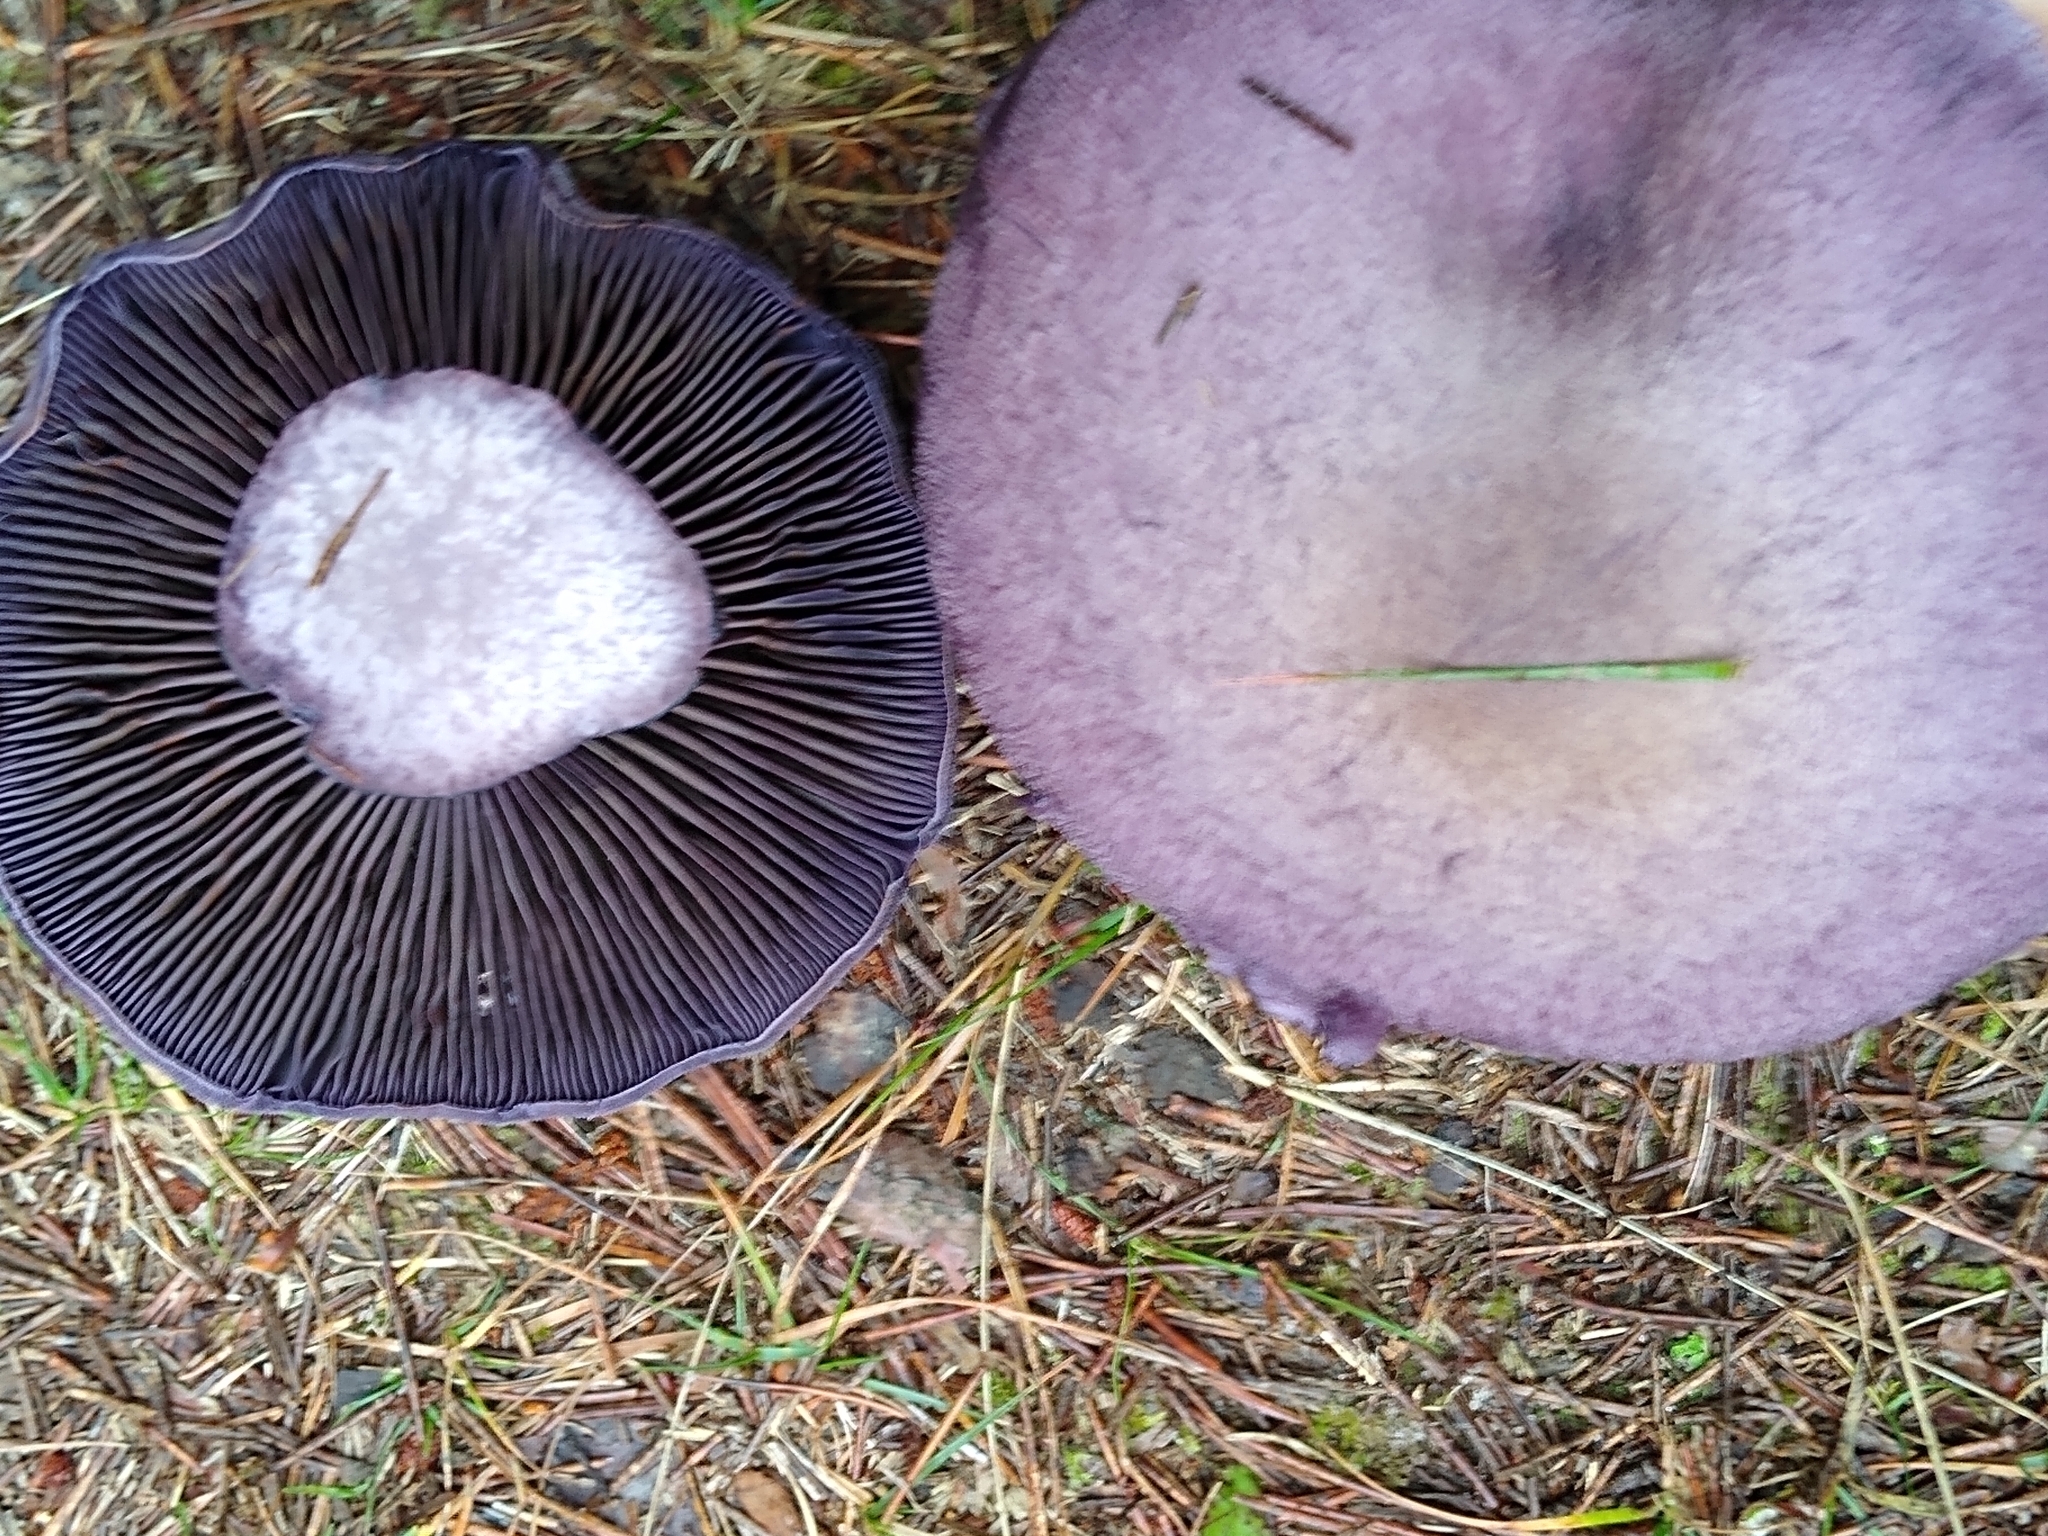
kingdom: Fungi
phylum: Basidiomycota
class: Agaricomycetes
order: Agaricales
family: Cortinariaceae
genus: Cortinarius
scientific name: Cortinarius violaceus
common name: Violet webcap
